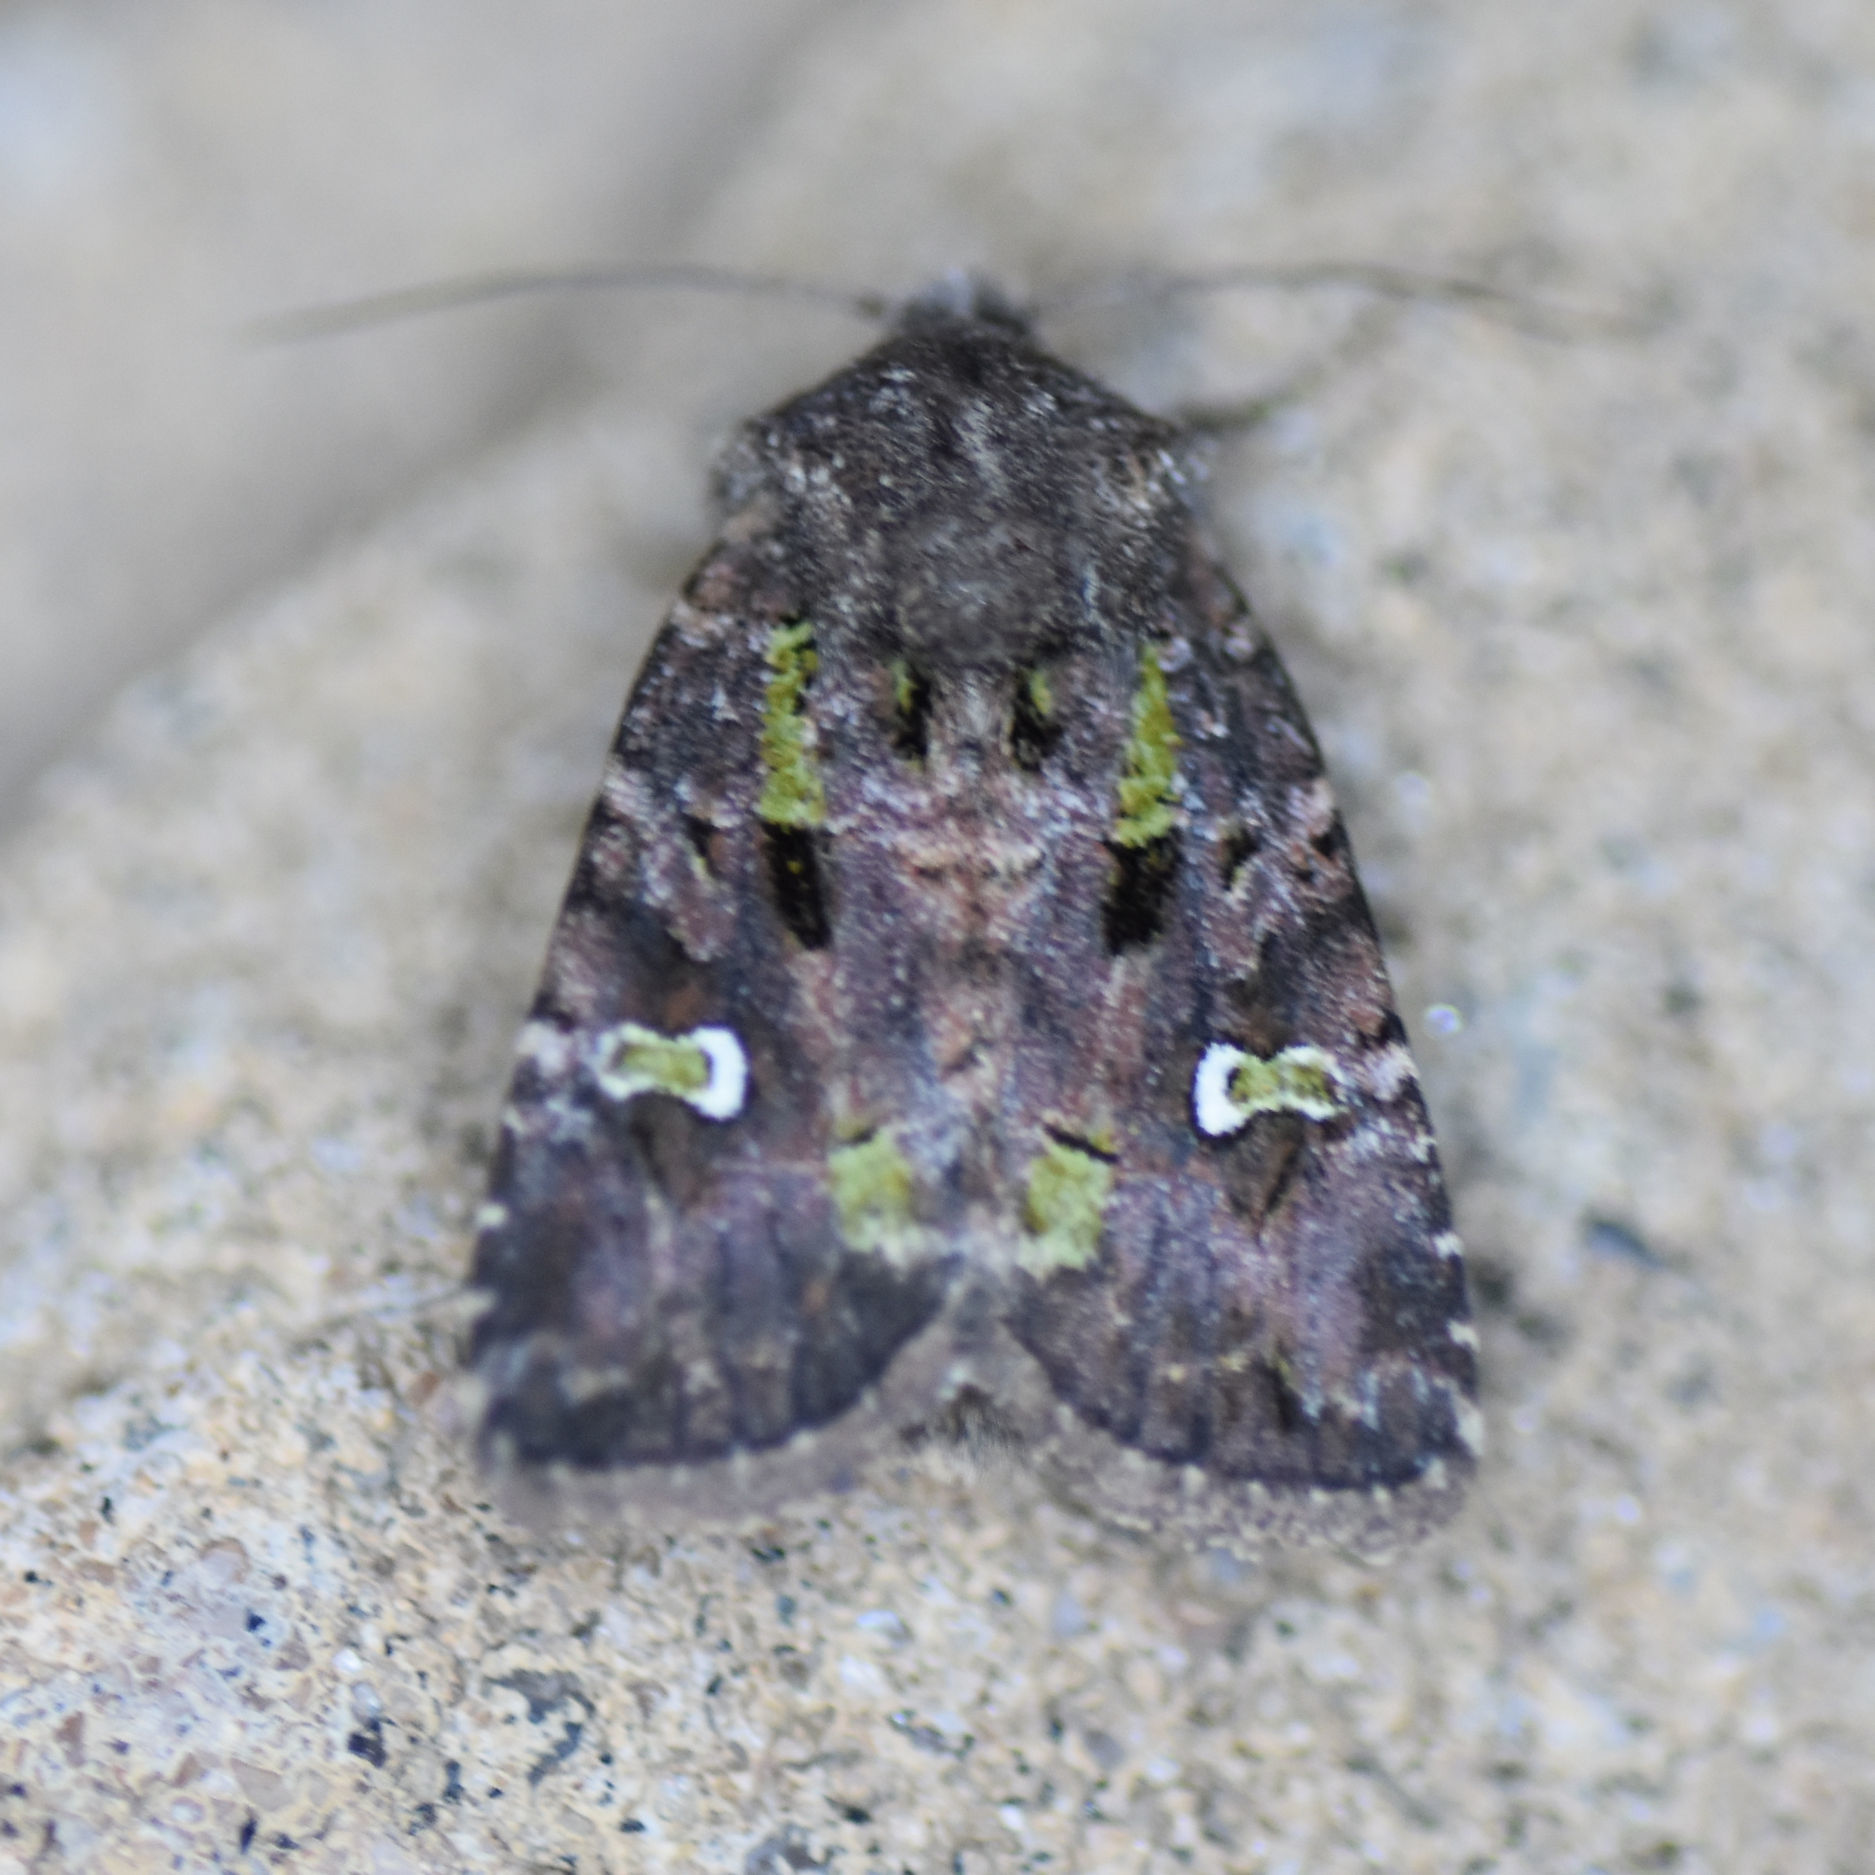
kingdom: Animalia
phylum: Arthropoda
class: Insecta
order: Lepidoptera
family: Noctuidae
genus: Lacinipolia
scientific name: Lacinipolia renigera
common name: Kidney-spotted minor
